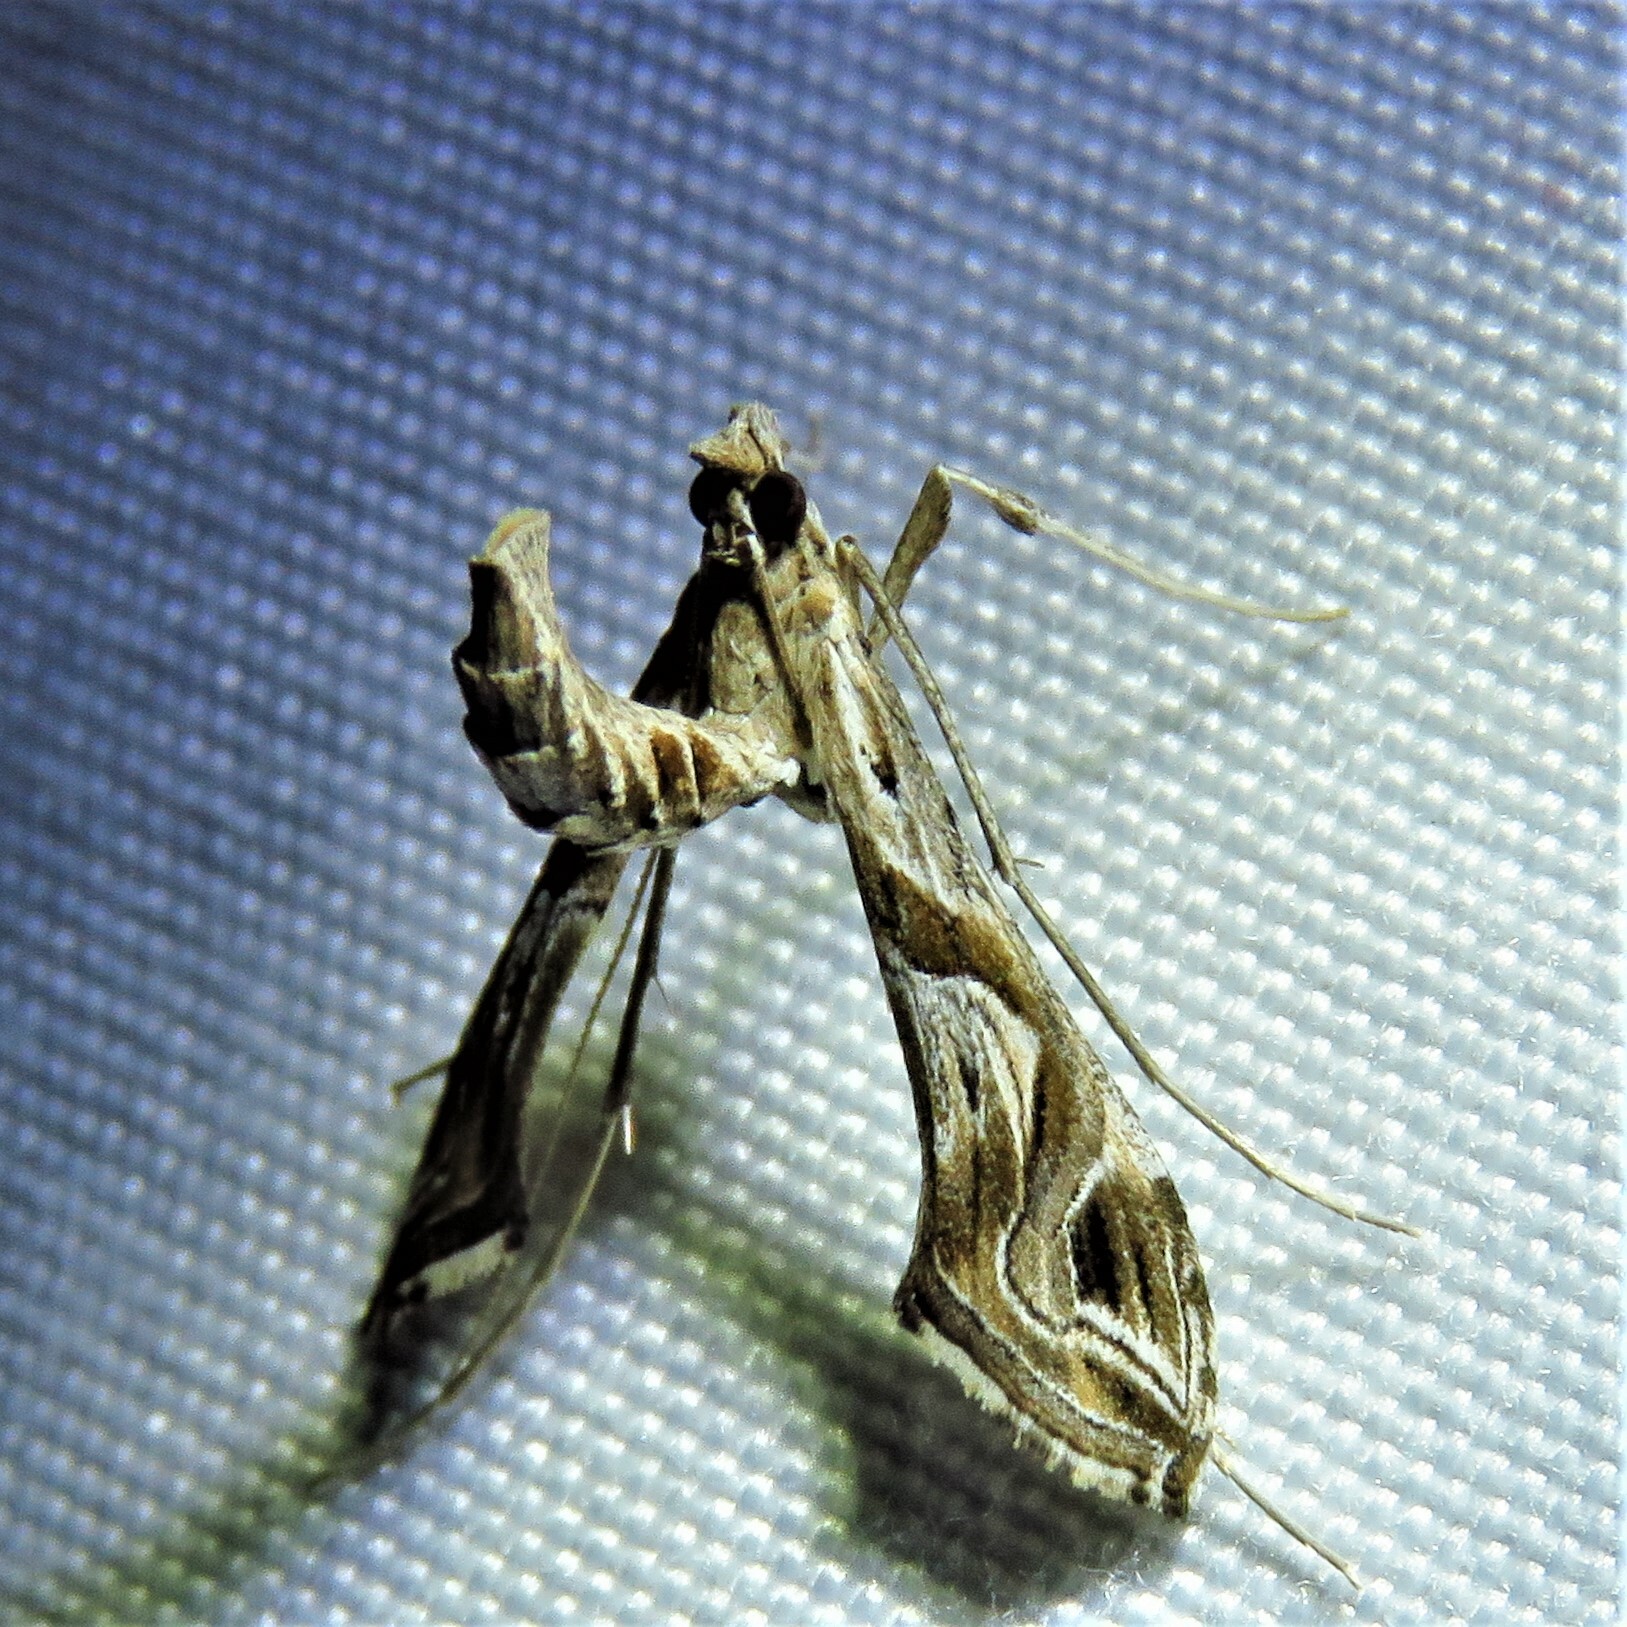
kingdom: Animalia
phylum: Arthropoda
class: Insecta
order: Lepidoptera
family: Crambidae
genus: Lineodes
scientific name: Lineodes integra
